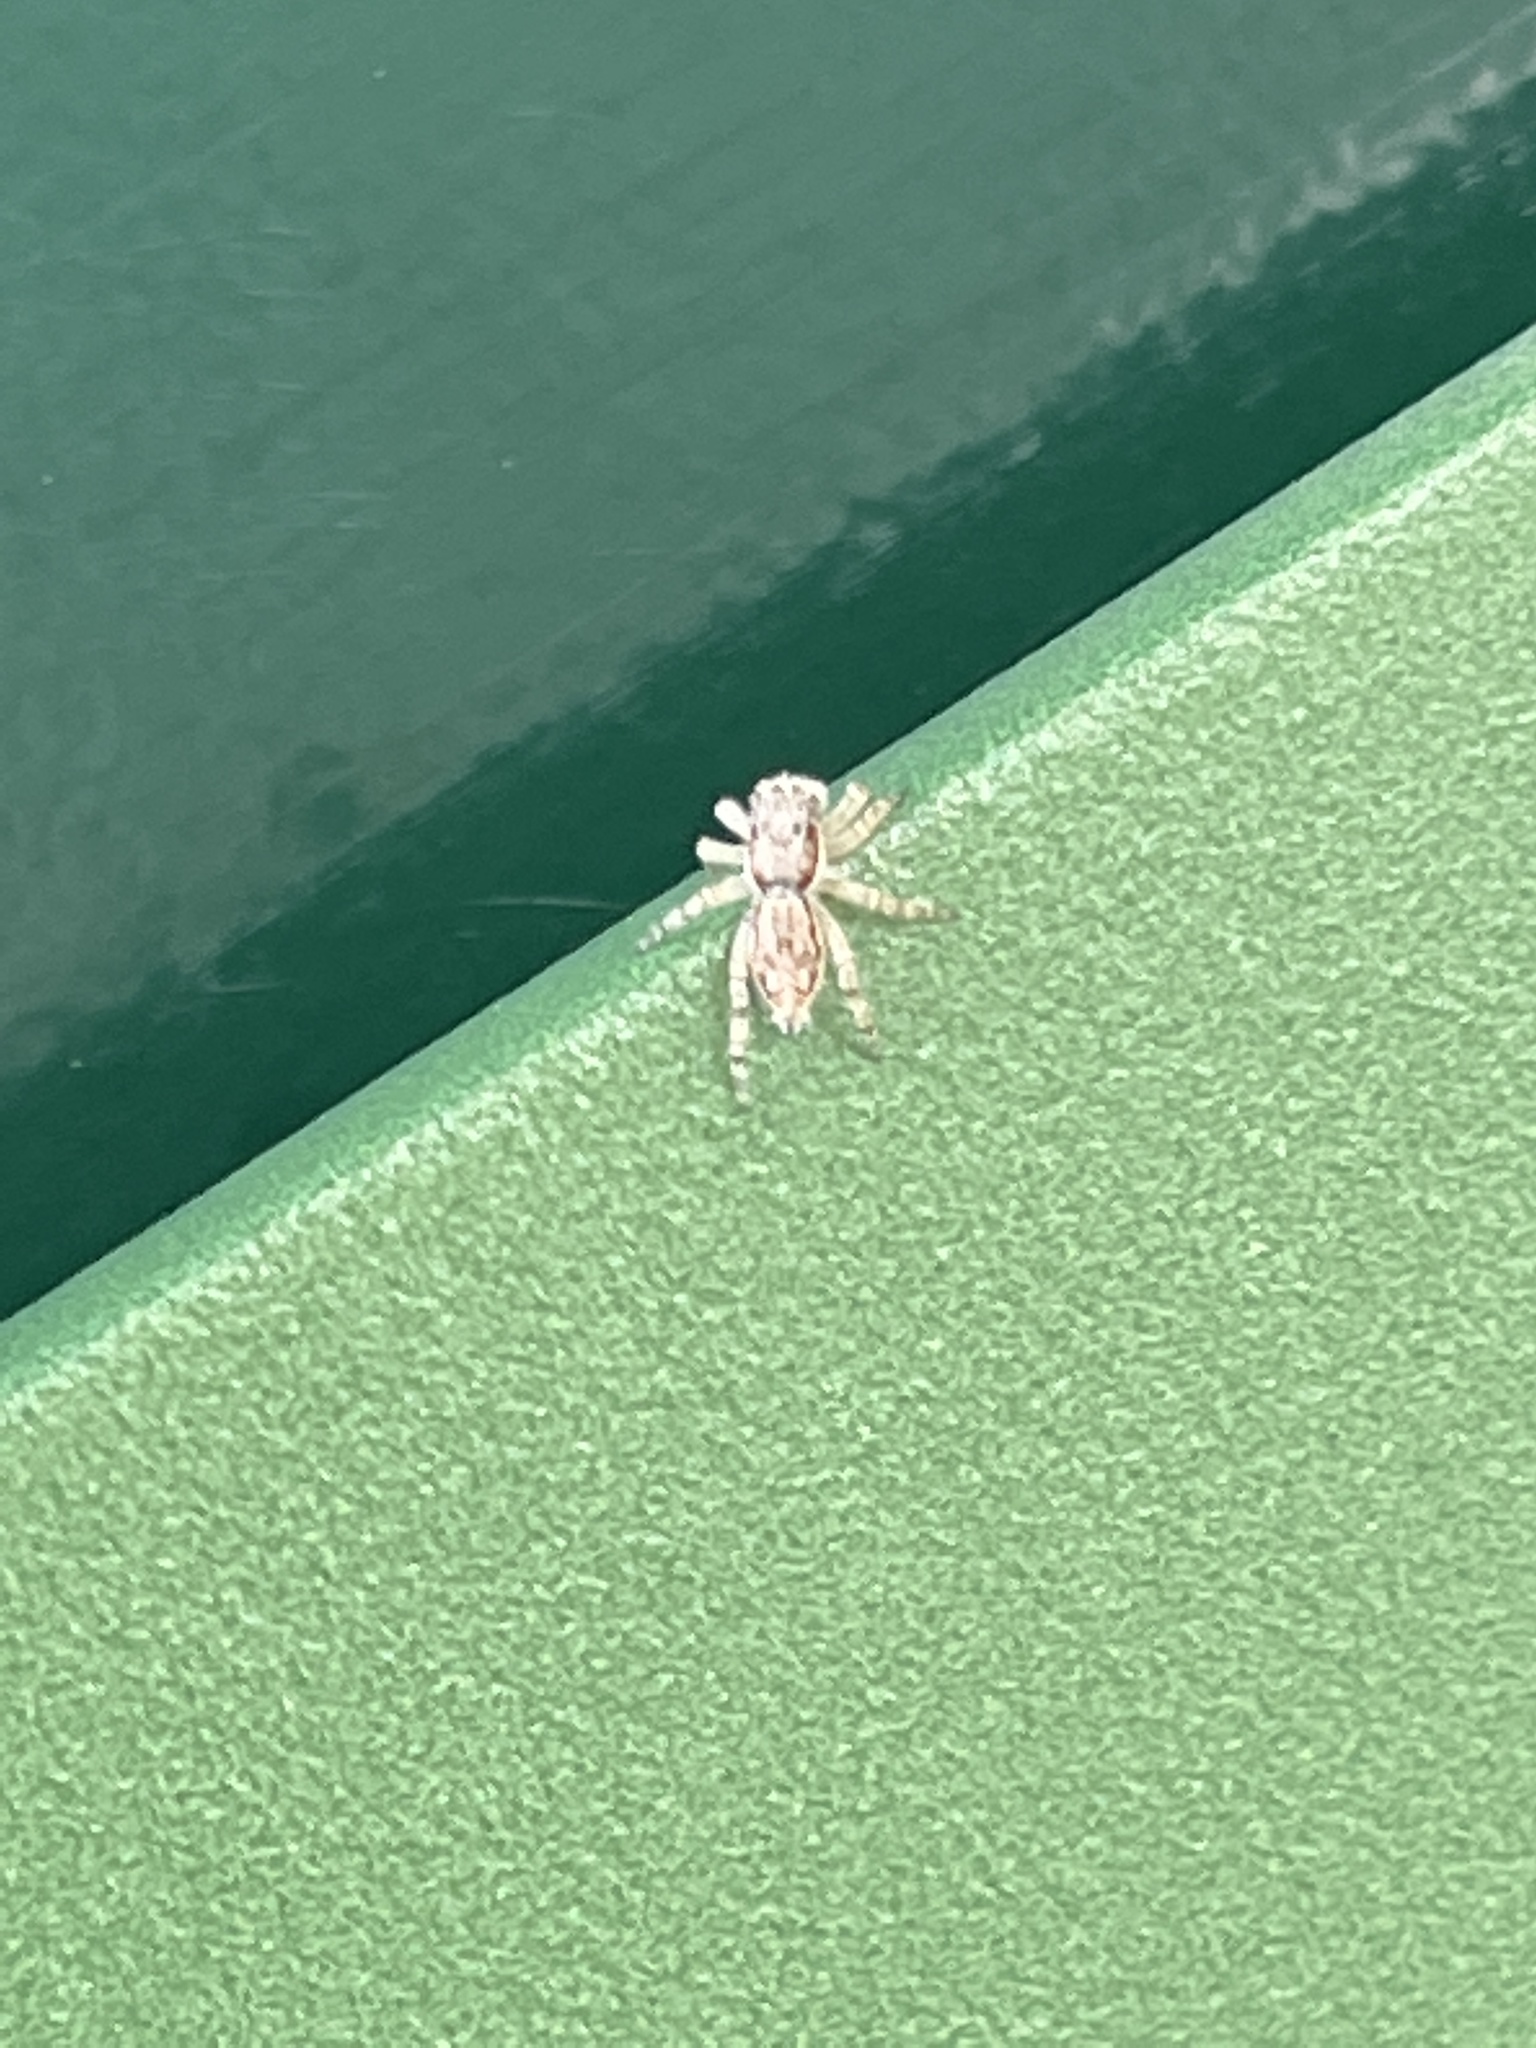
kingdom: Animalia
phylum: Arthropoda
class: Arachnida
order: Araneae
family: Salticidae
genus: Menemerus
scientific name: Menemerus bivittatus
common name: Gray wall jumper
